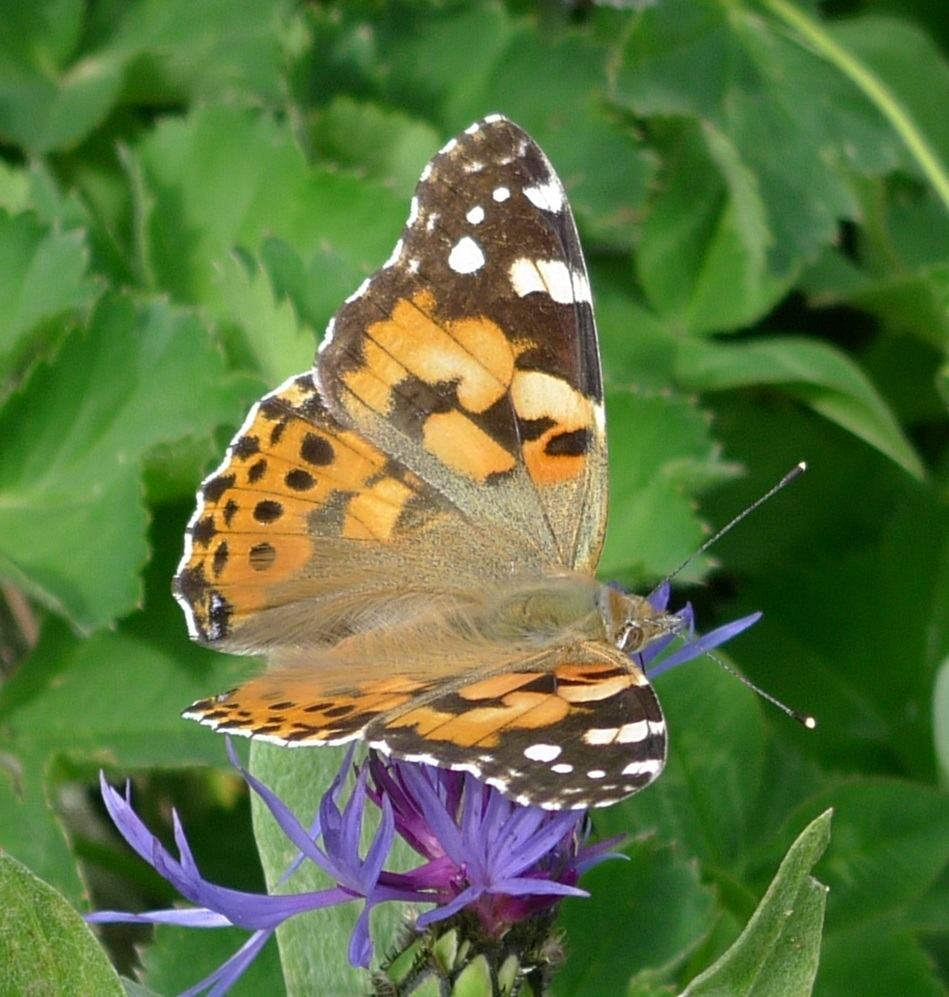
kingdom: Animalia
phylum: Arthropoda
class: Insecta
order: Lepidoptera
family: Nymphalidae
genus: Vanessa
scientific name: Vanessa cardui
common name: Painted lady
